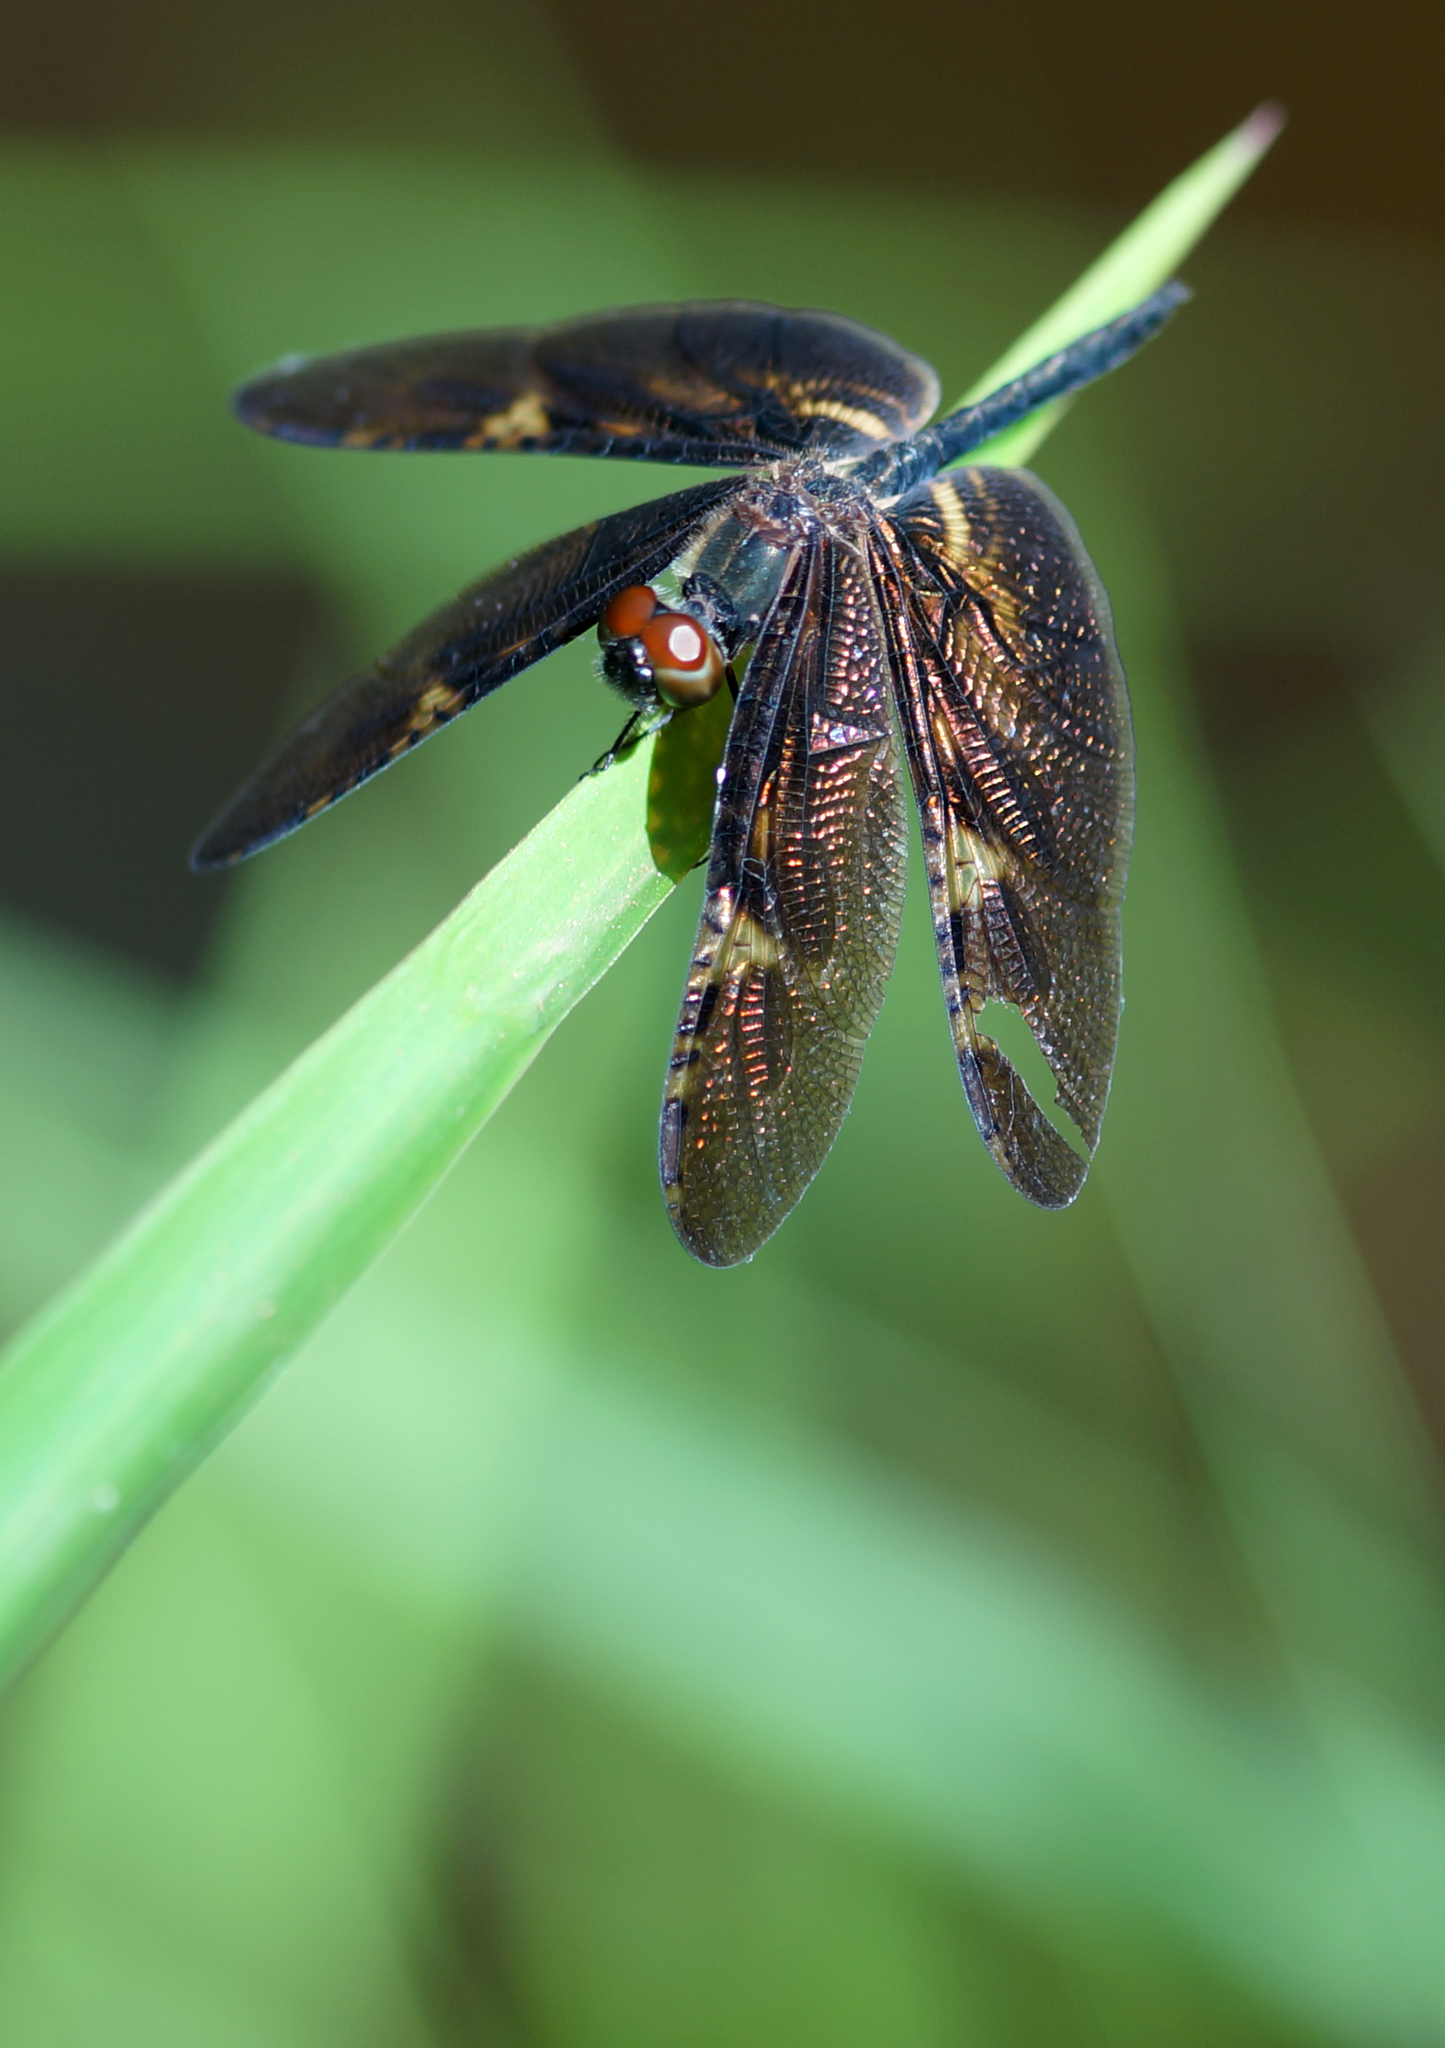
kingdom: Animalia
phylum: Arthropoda
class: Insecta
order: Odonata
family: Libellulidae
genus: Rhyothemis
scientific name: Rhyothemis obsolescens
